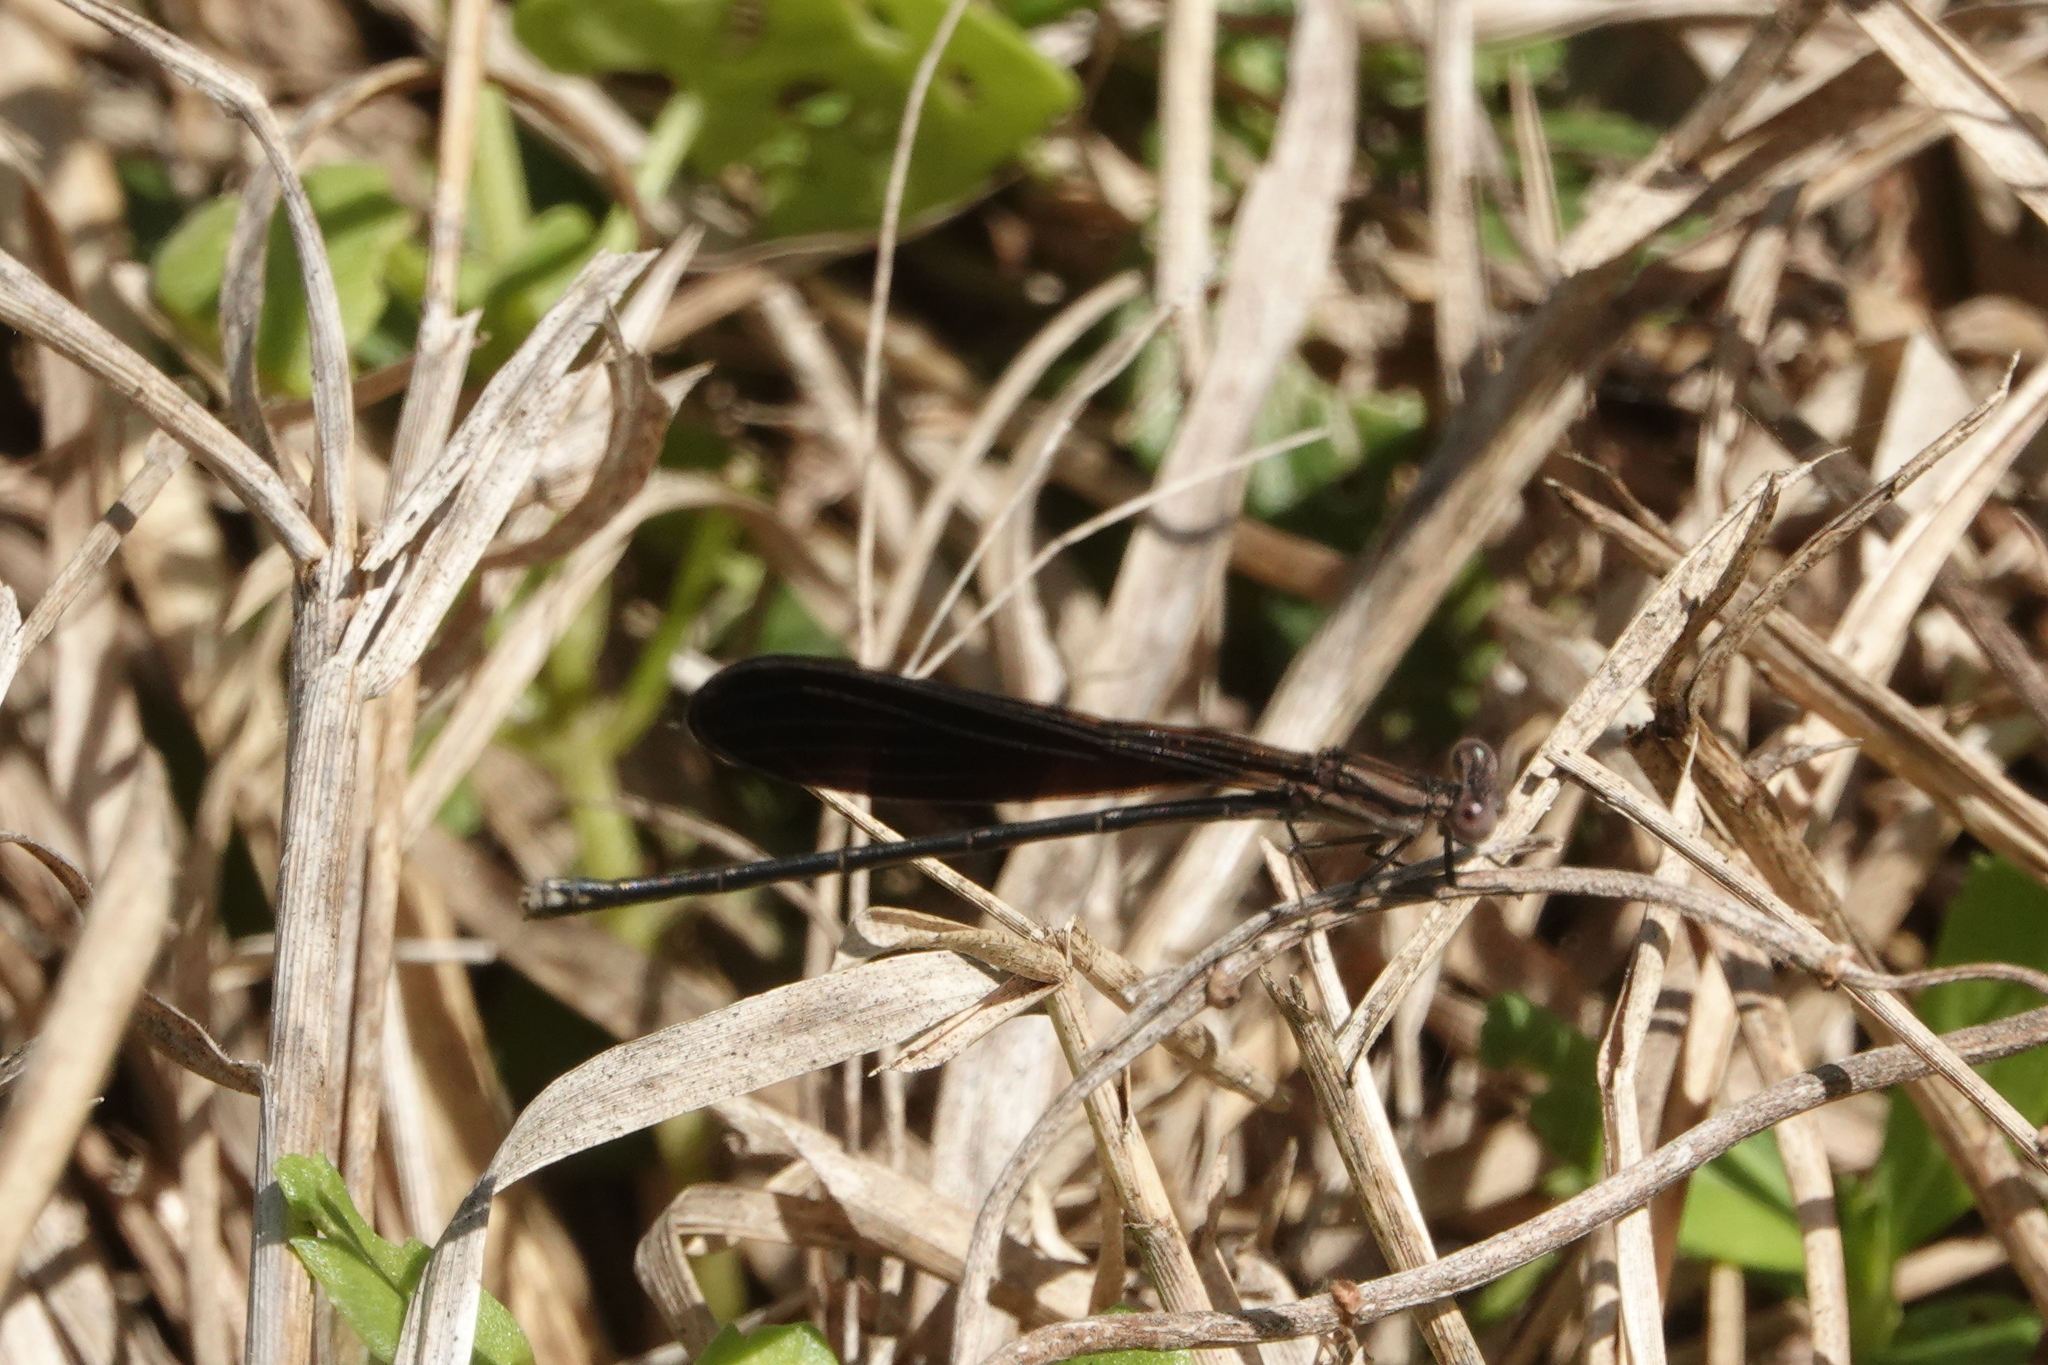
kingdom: Animalia
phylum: Arthropoda
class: Insecta
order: Odonata
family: Coenagrionidae
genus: Argia
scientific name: Argia fumipennis
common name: Variable dancer
